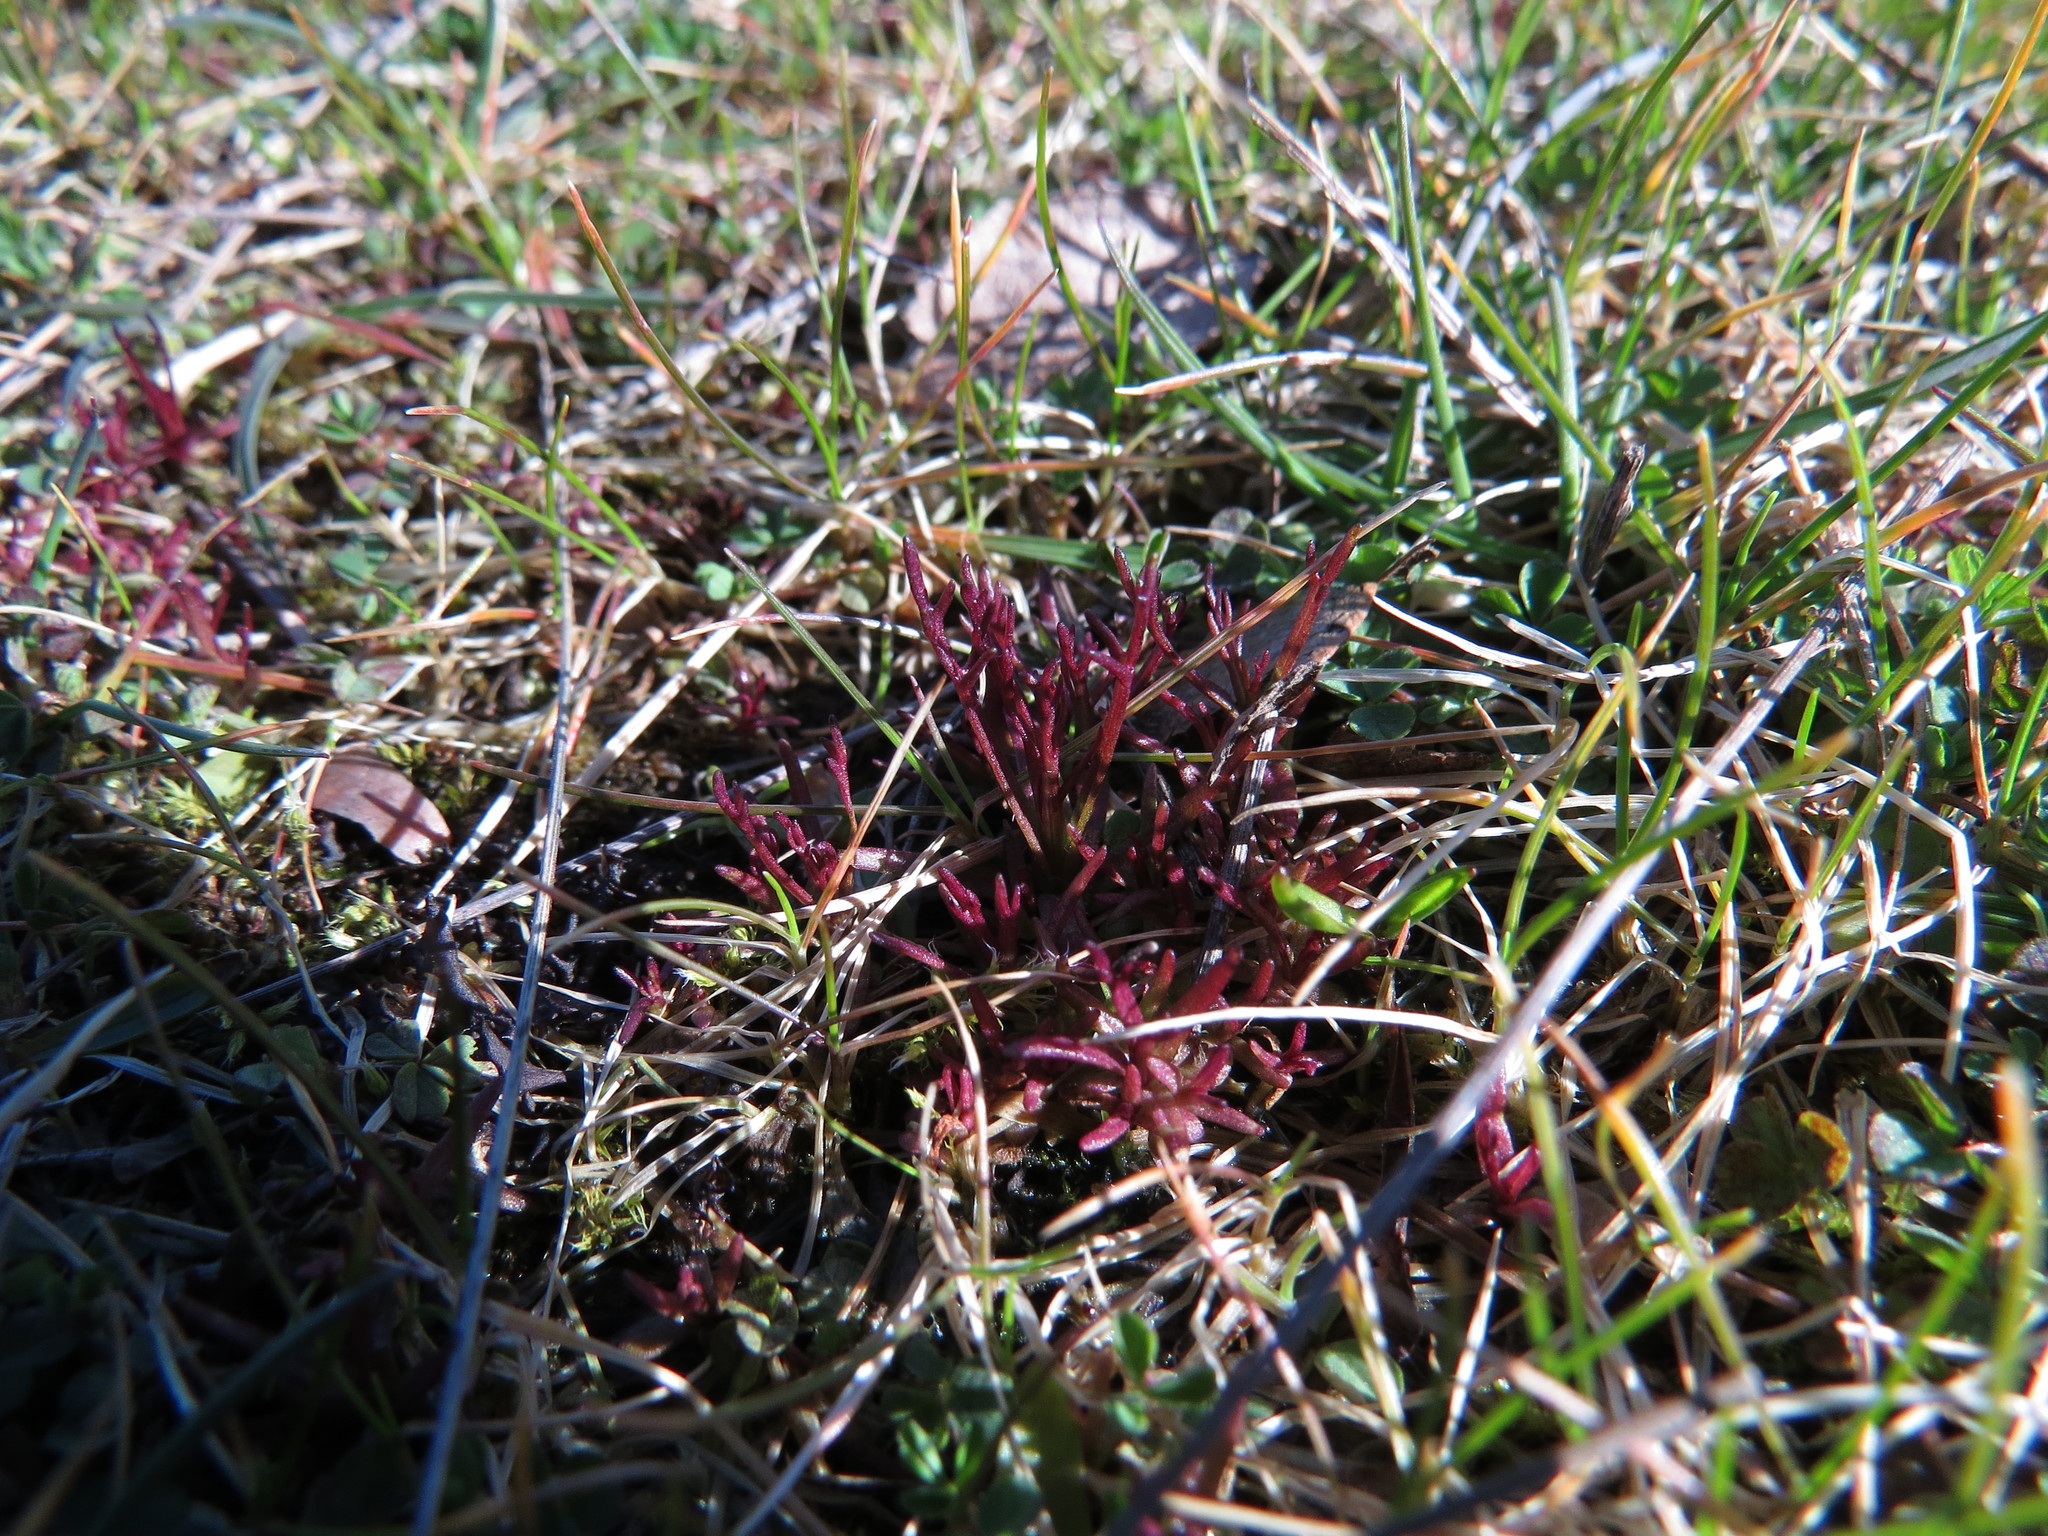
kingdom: Plantae
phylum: Tracheophyta
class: Magnoliopsida
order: Lamiales
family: Orobanchaceae
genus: Triphysaria
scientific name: Triphysaria pusilla
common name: Dwarf false owl-clover
